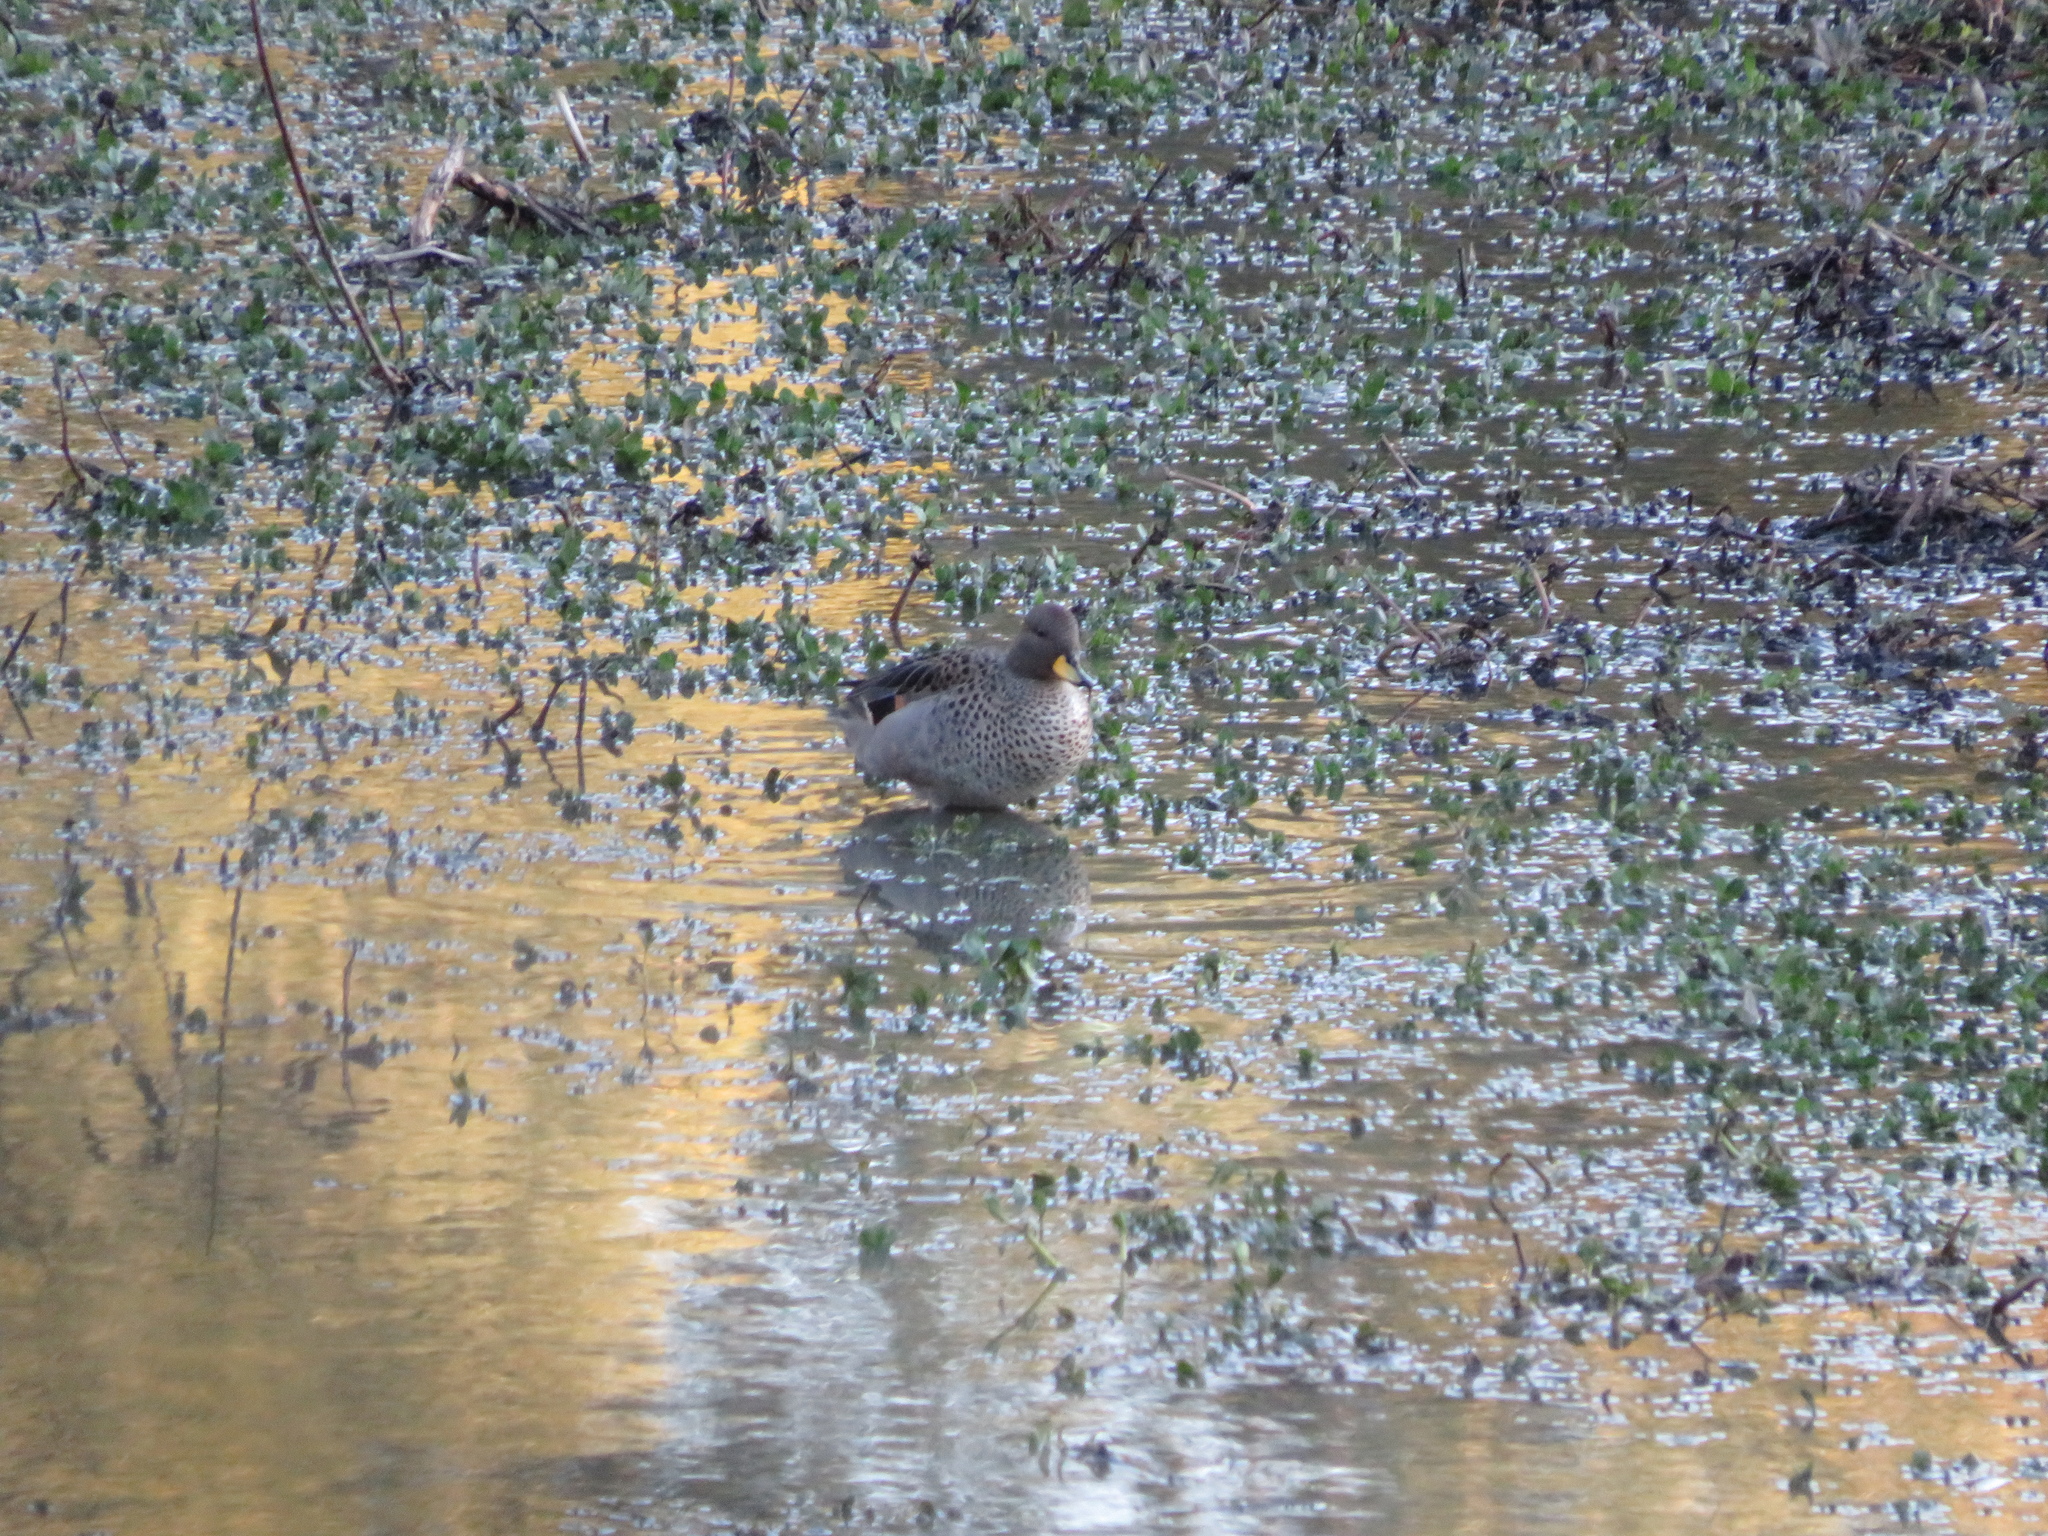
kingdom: Animalia
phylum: Chordata
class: Aves
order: Anseriformes
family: Anatidae
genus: Anas
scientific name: Anas flavirostris
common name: Yellow-billed teal
